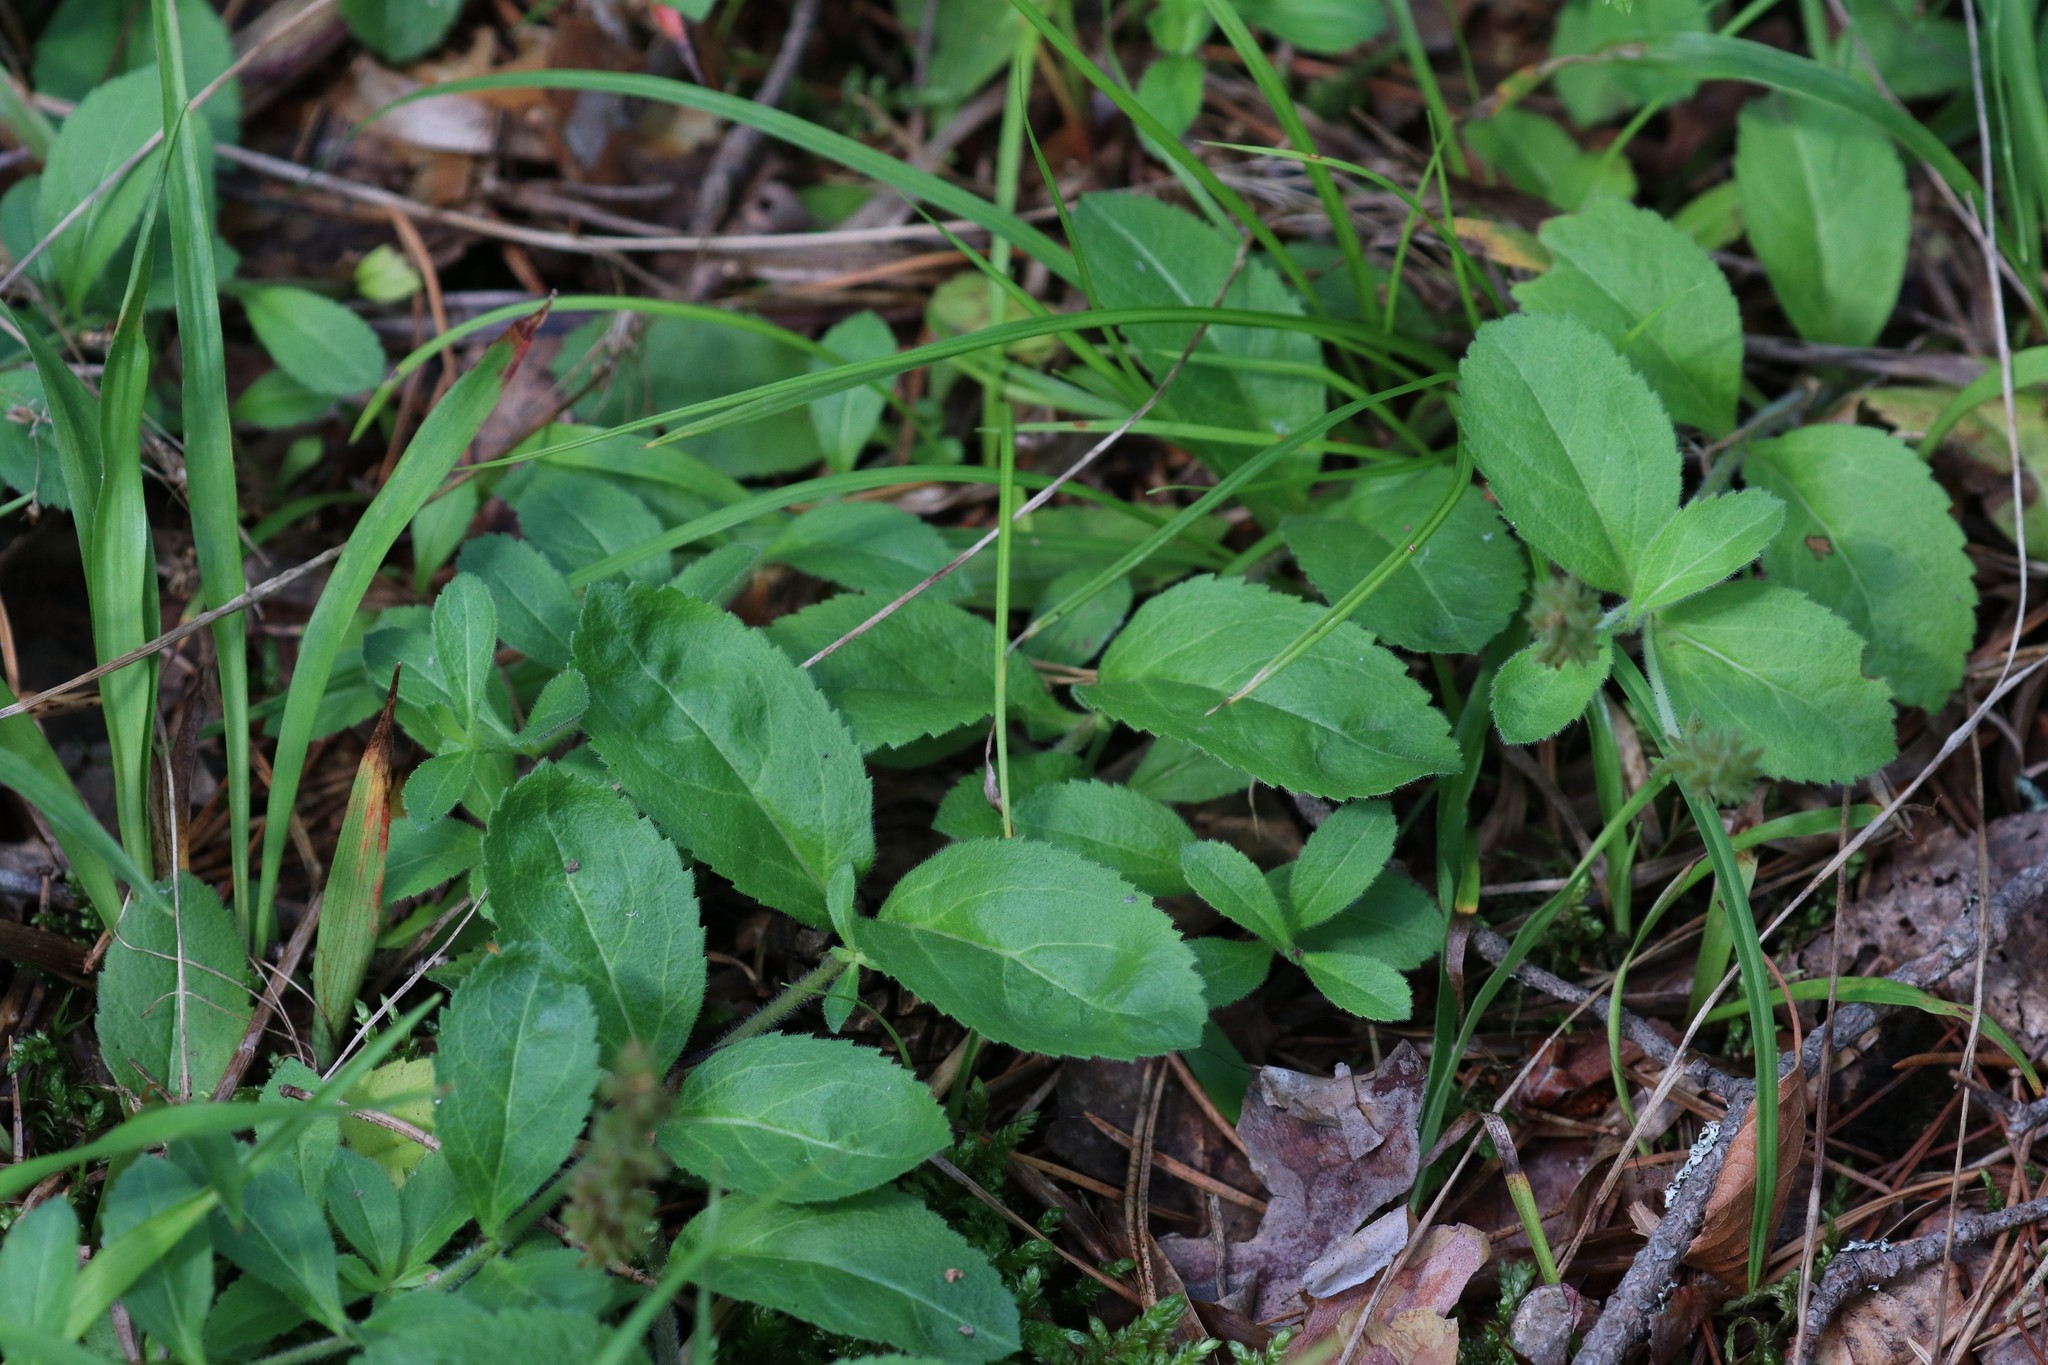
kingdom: Plantae
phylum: Tracheophyta
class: Magnoliopsida
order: Lamiales
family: Plantaginaceae
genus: Veronica
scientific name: Veronica officinalis
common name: Common speedwell
